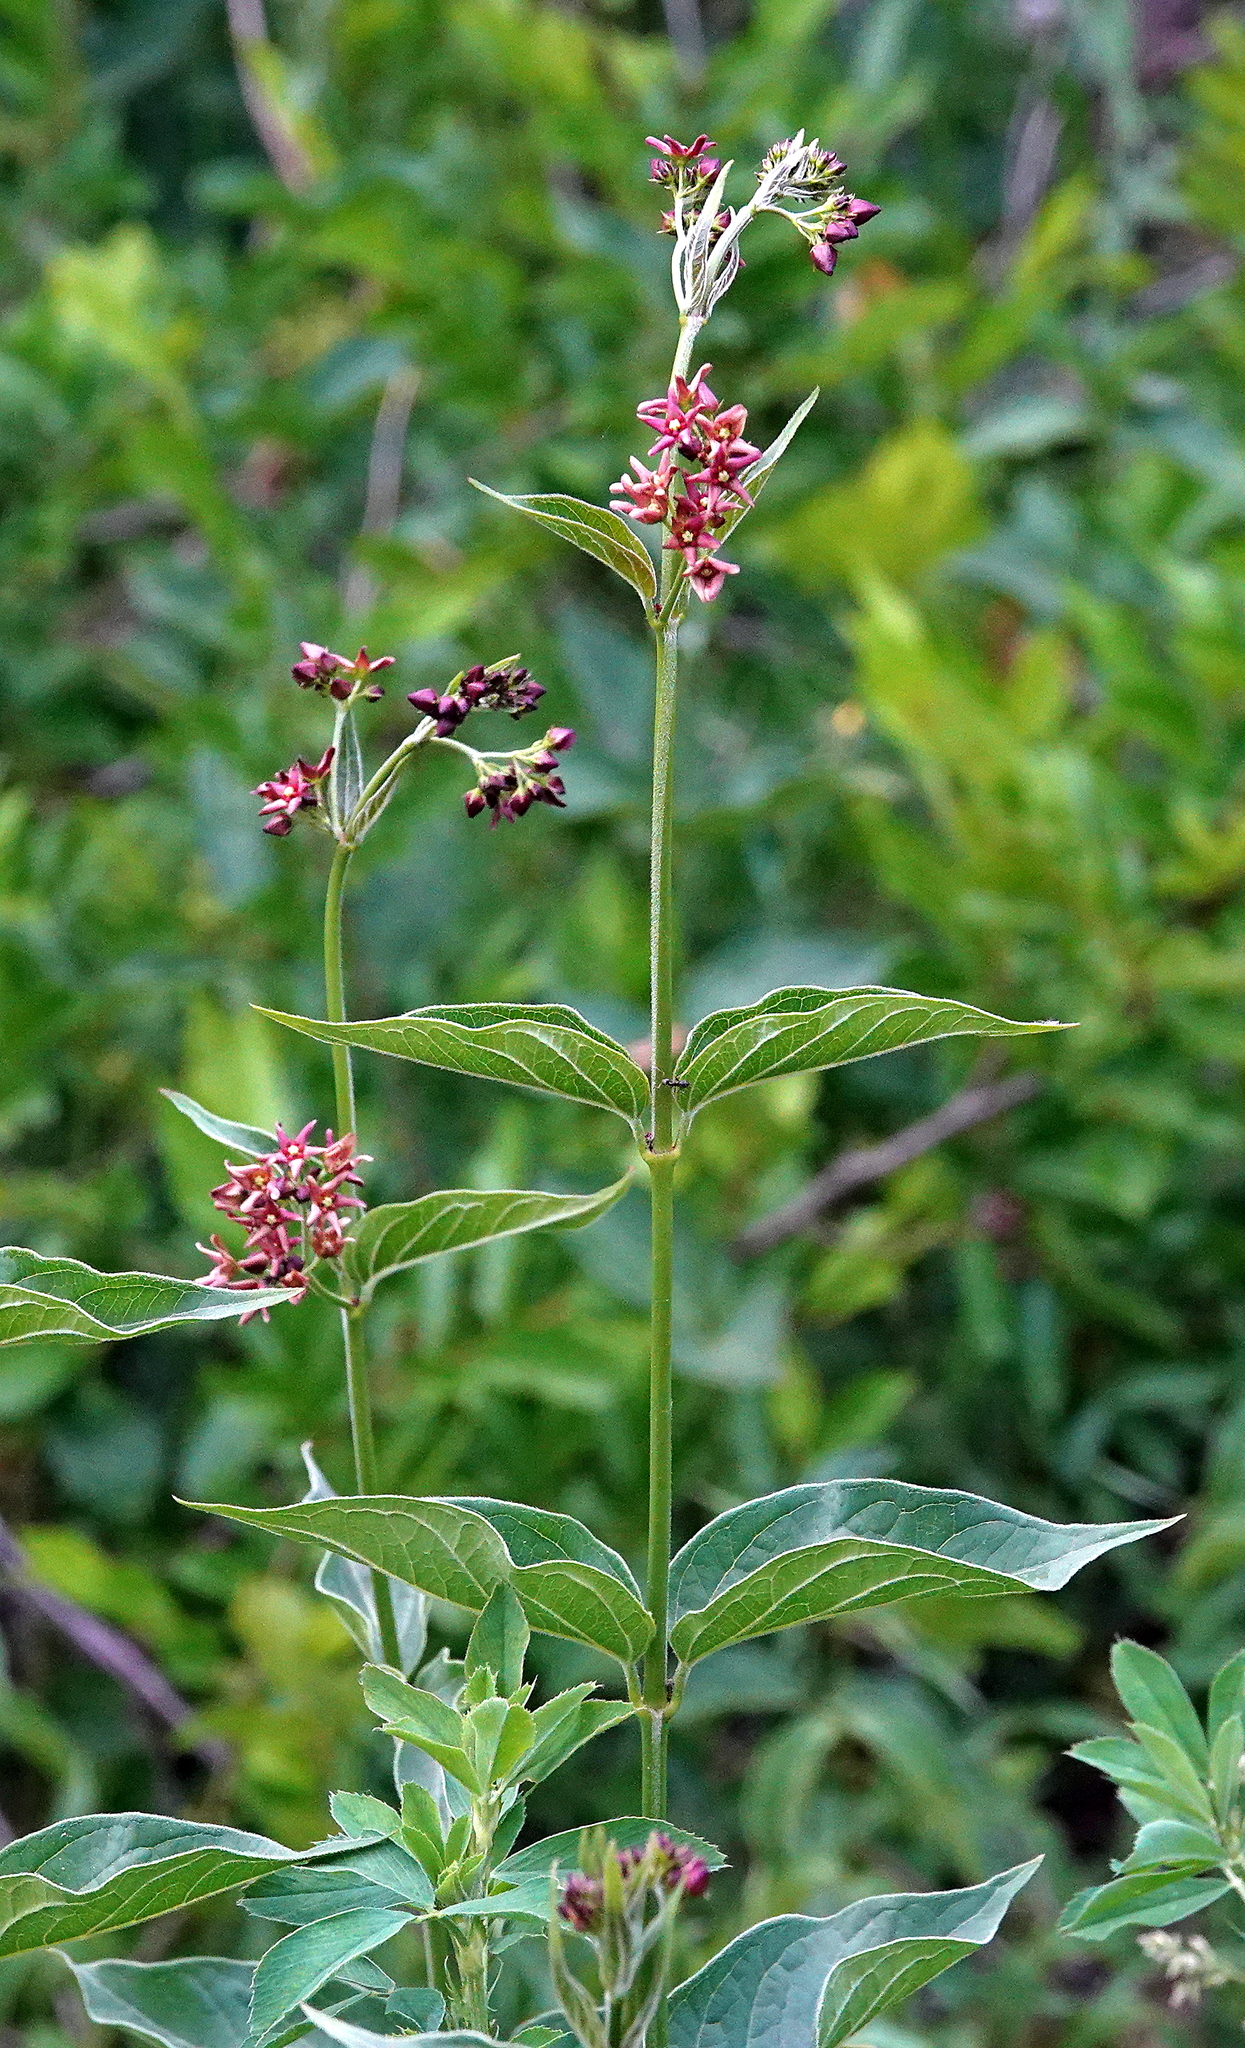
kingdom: Plantae
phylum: Tracheophyta
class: Magnoliopsida
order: Gentianales
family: Apocynaceae
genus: Vincetoxicum
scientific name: Vincetoxicum rossicum
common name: Dog-strangling vine
